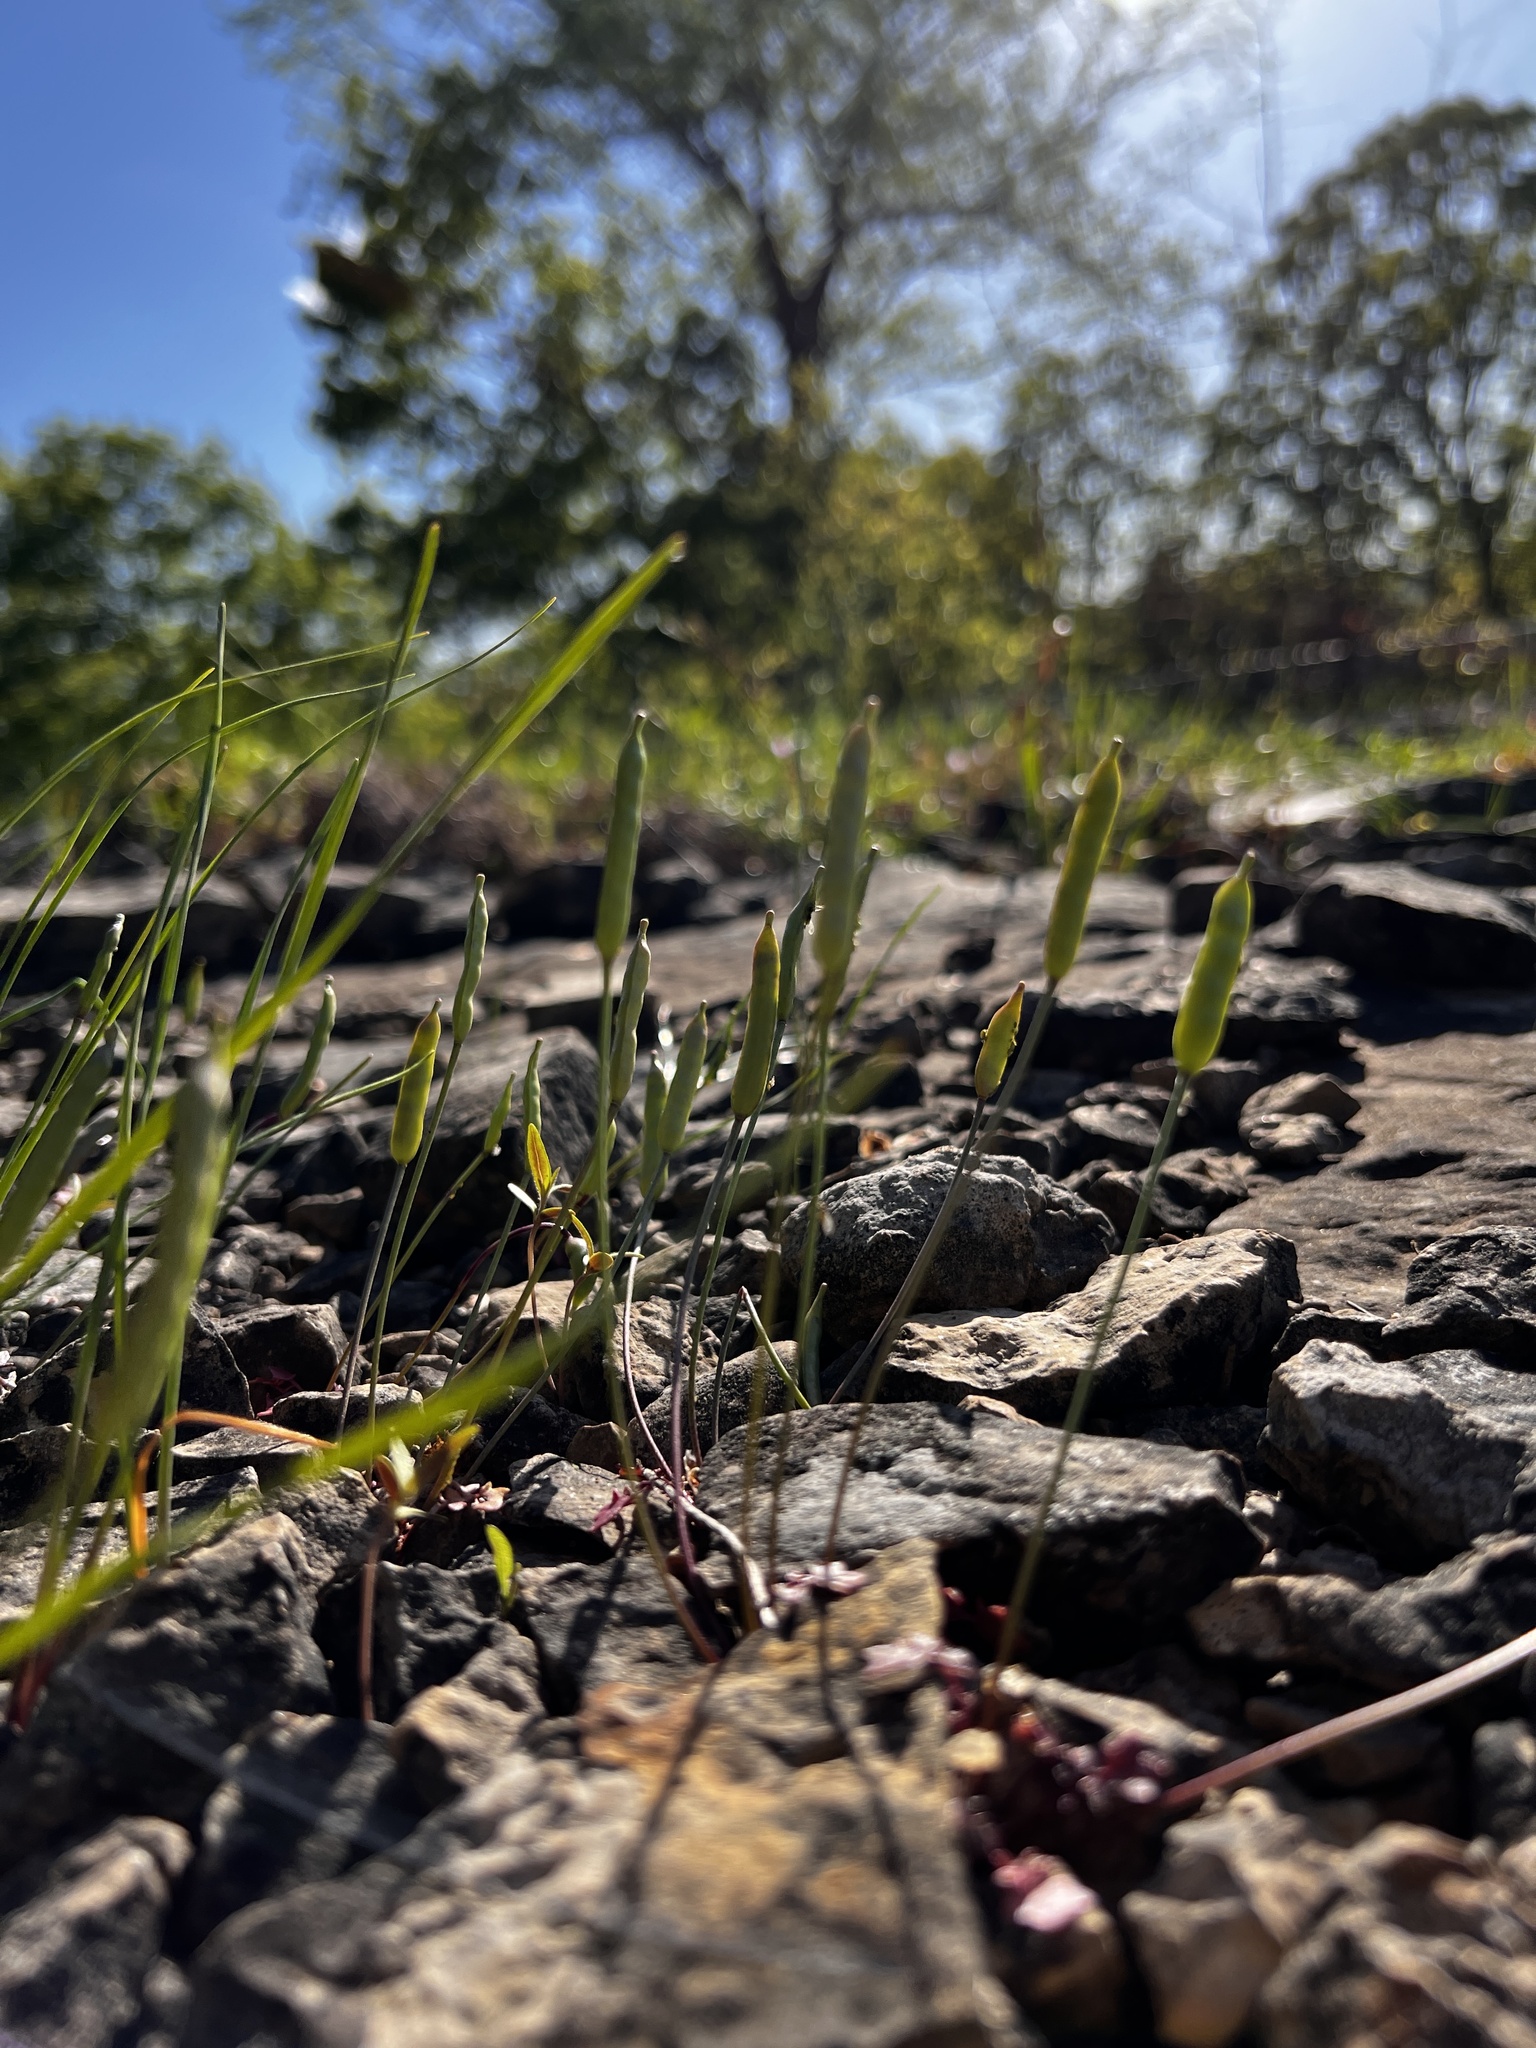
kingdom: Plantae
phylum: Tracheophyta
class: Magnoliopsida
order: Brassicales
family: Brassicaceae
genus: Leavenworthia
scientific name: Leavenworthia uniflora
